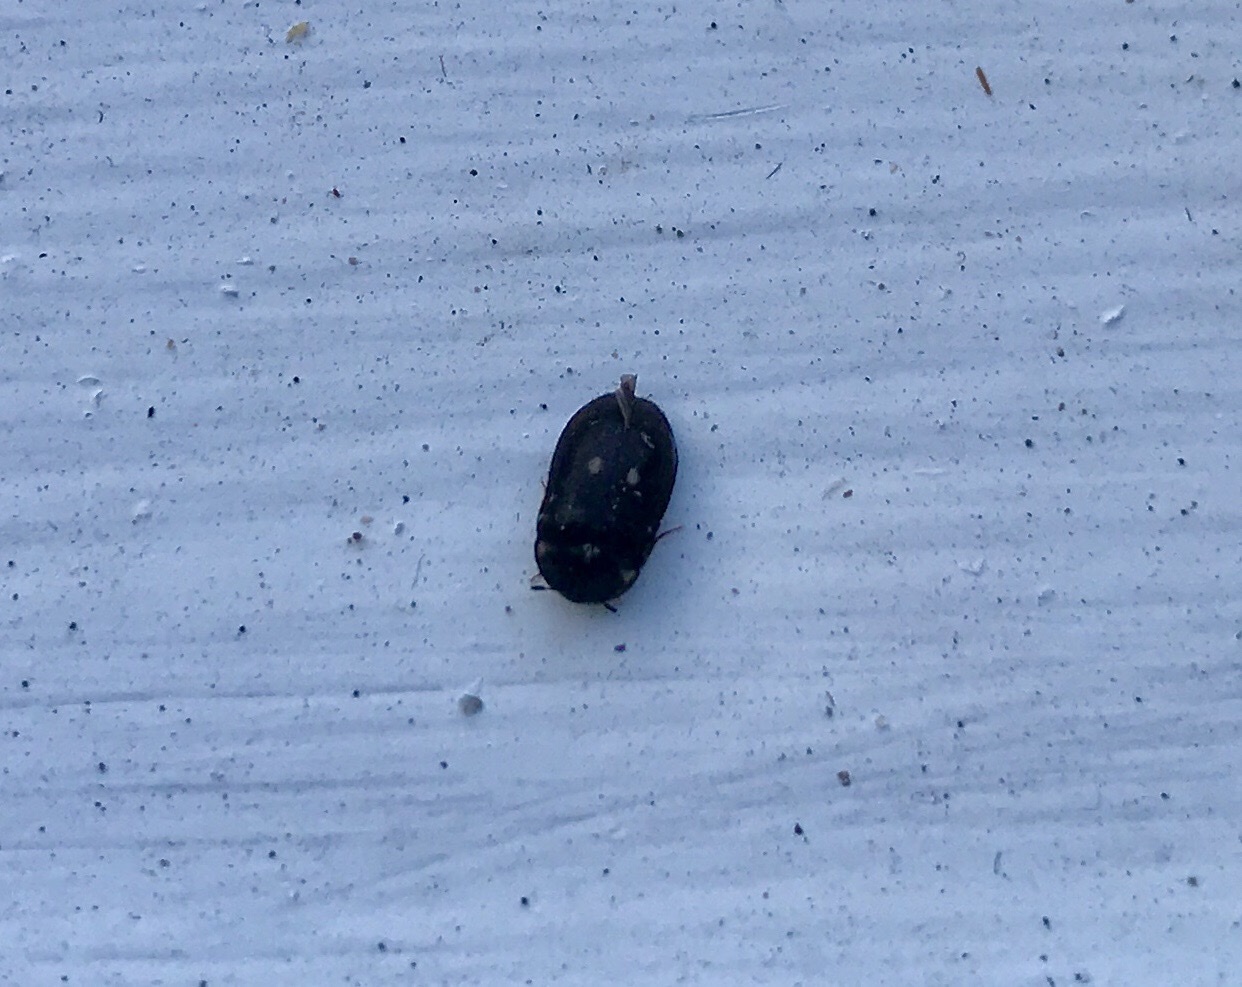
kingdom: Animalia
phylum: Arthropoda
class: Insecta
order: Coleoptera
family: Dermestidae
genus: Attagenus
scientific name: Attagenus pellio
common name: Two-spotted carpet beetle
